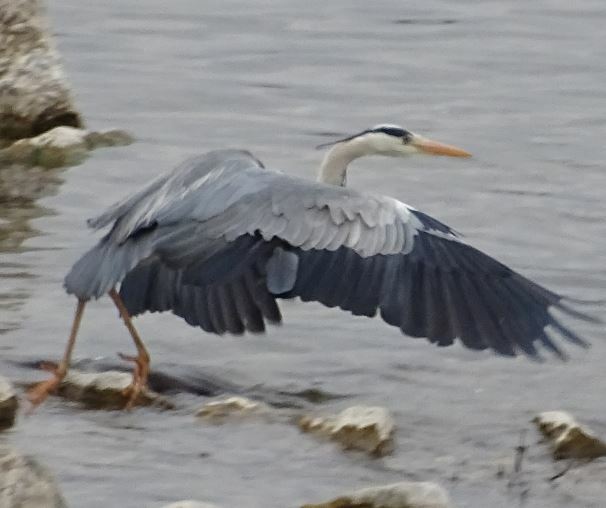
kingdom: Animalia
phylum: Chordata
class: Aves
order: Pelecaniformes
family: Ardeidae
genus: Ardea
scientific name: Ardea cinerea
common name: Grey heron
